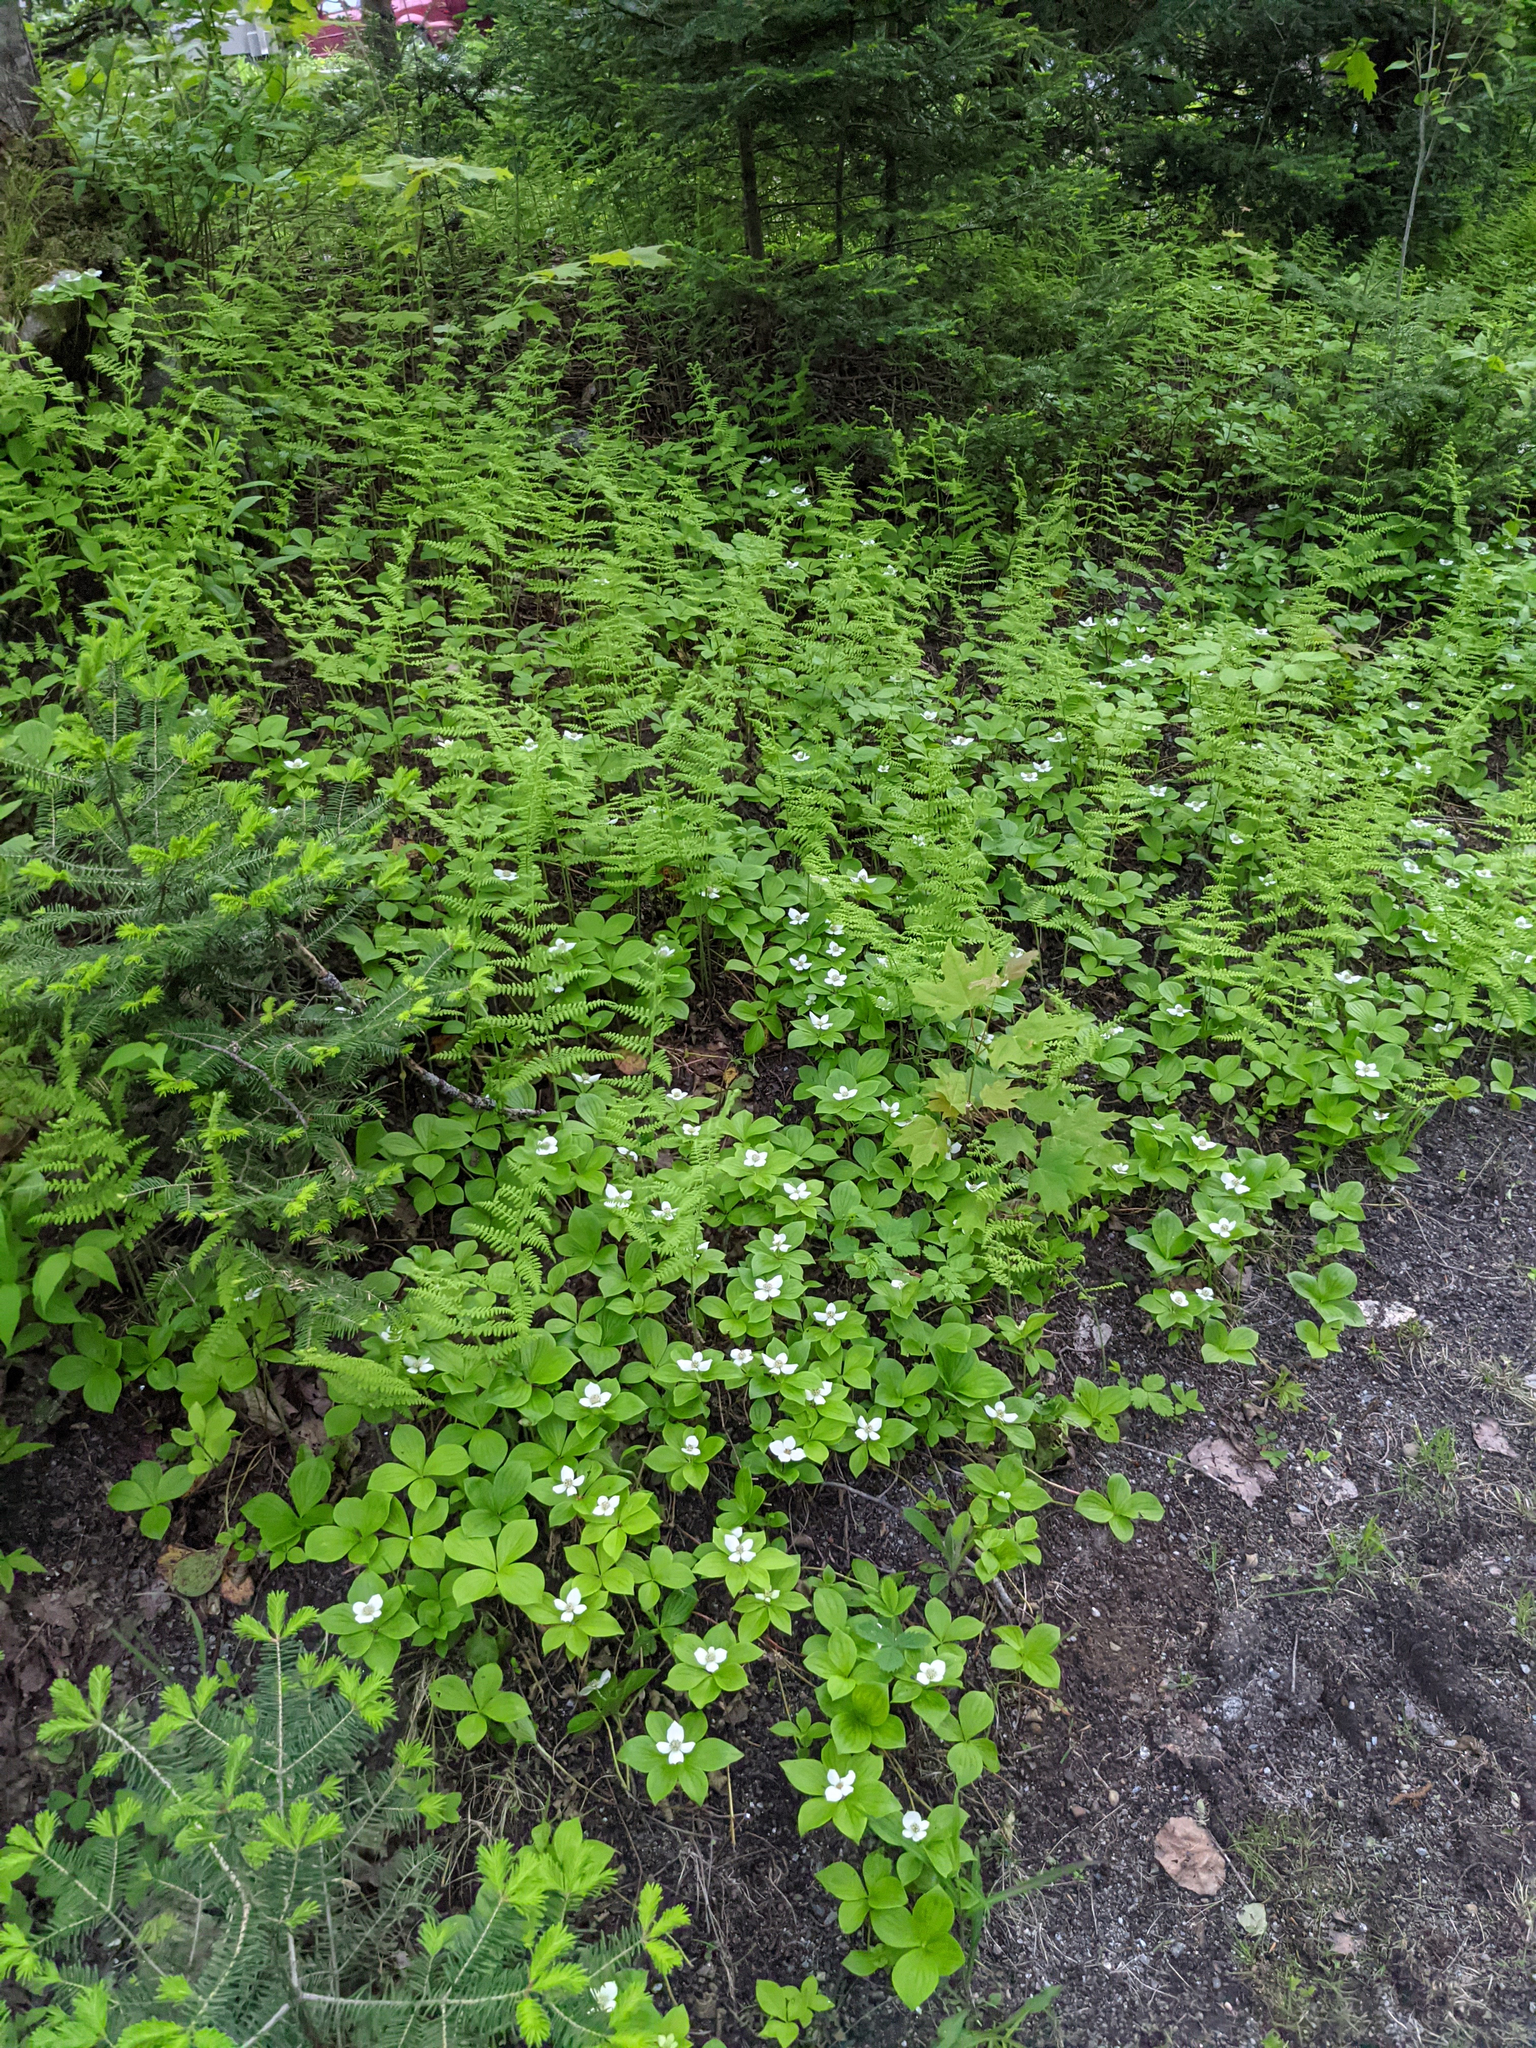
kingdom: Plantae
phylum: Tracheophyta
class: Magnoliopsida
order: Cornales
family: Cornaceae
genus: Cornus
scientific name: Cornus canadensis
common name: Creeping dogwood
